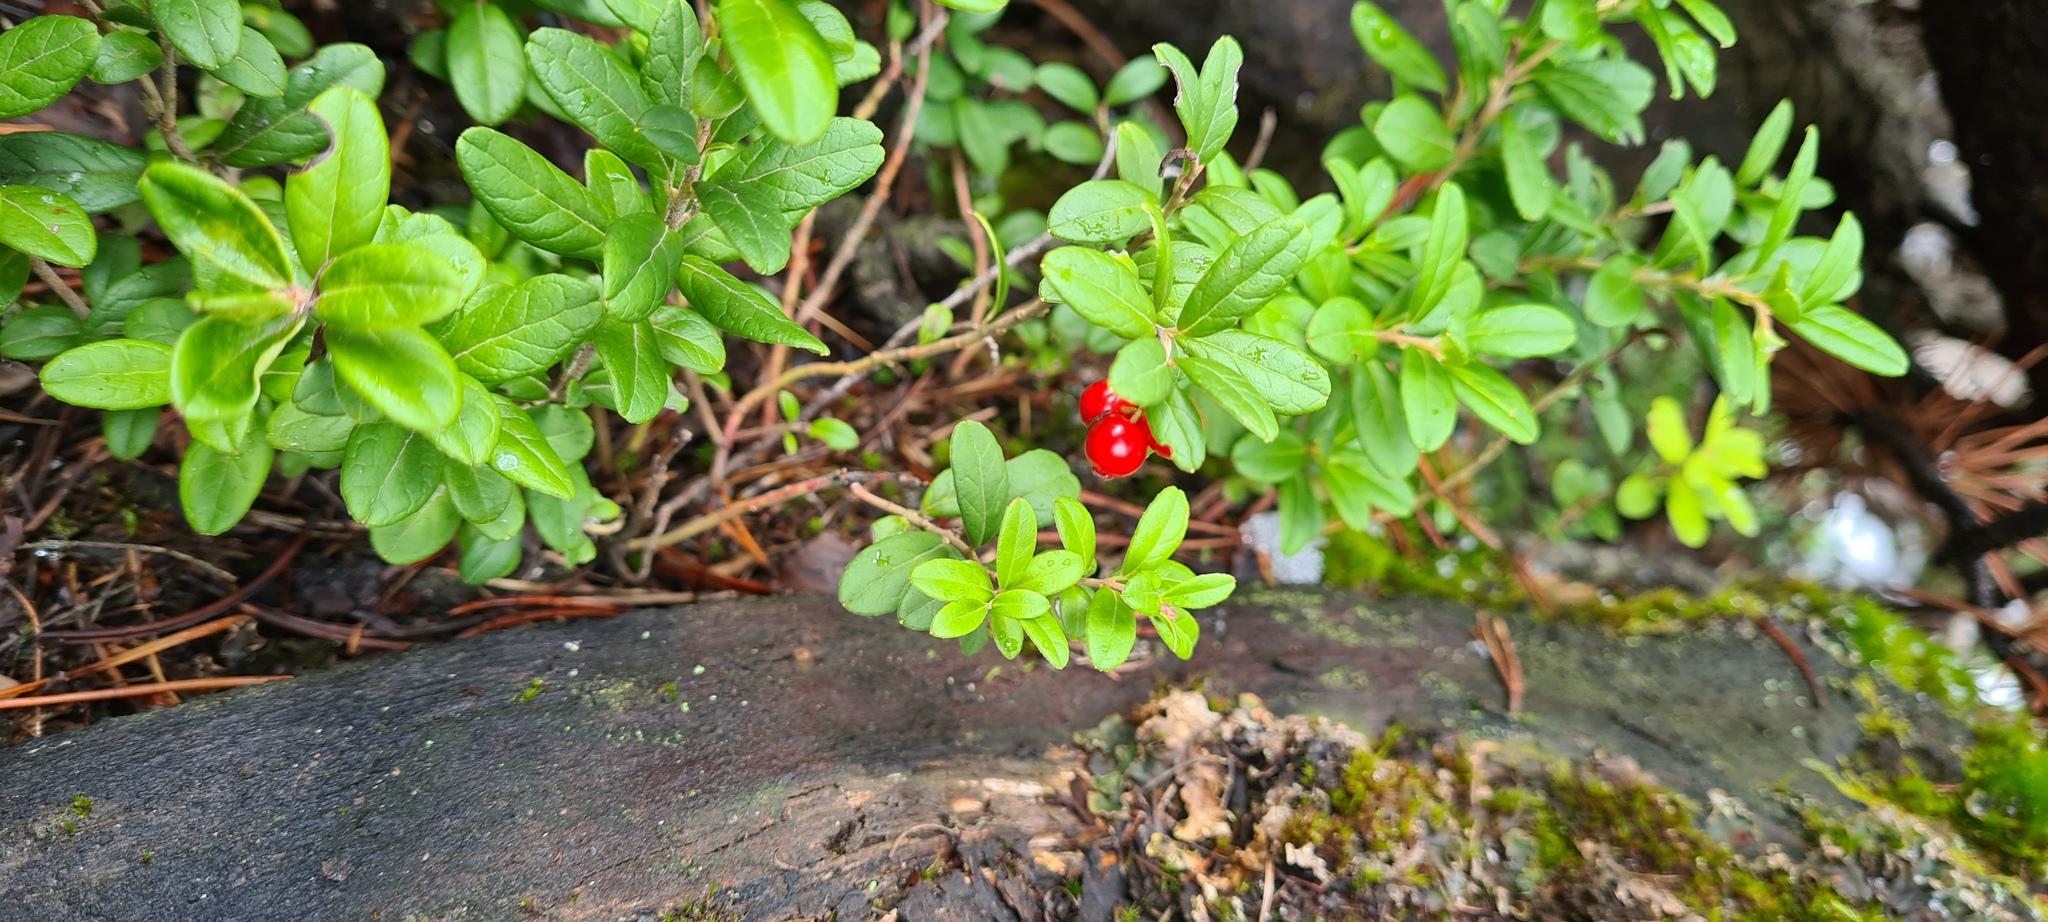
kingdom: Plantae
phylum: Tracheophyta
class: Magnoliopsida
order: Ericales
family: Ericaceae
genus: Vaccinium
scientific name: Vaccinium vitis-idaea
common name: Cowberry
